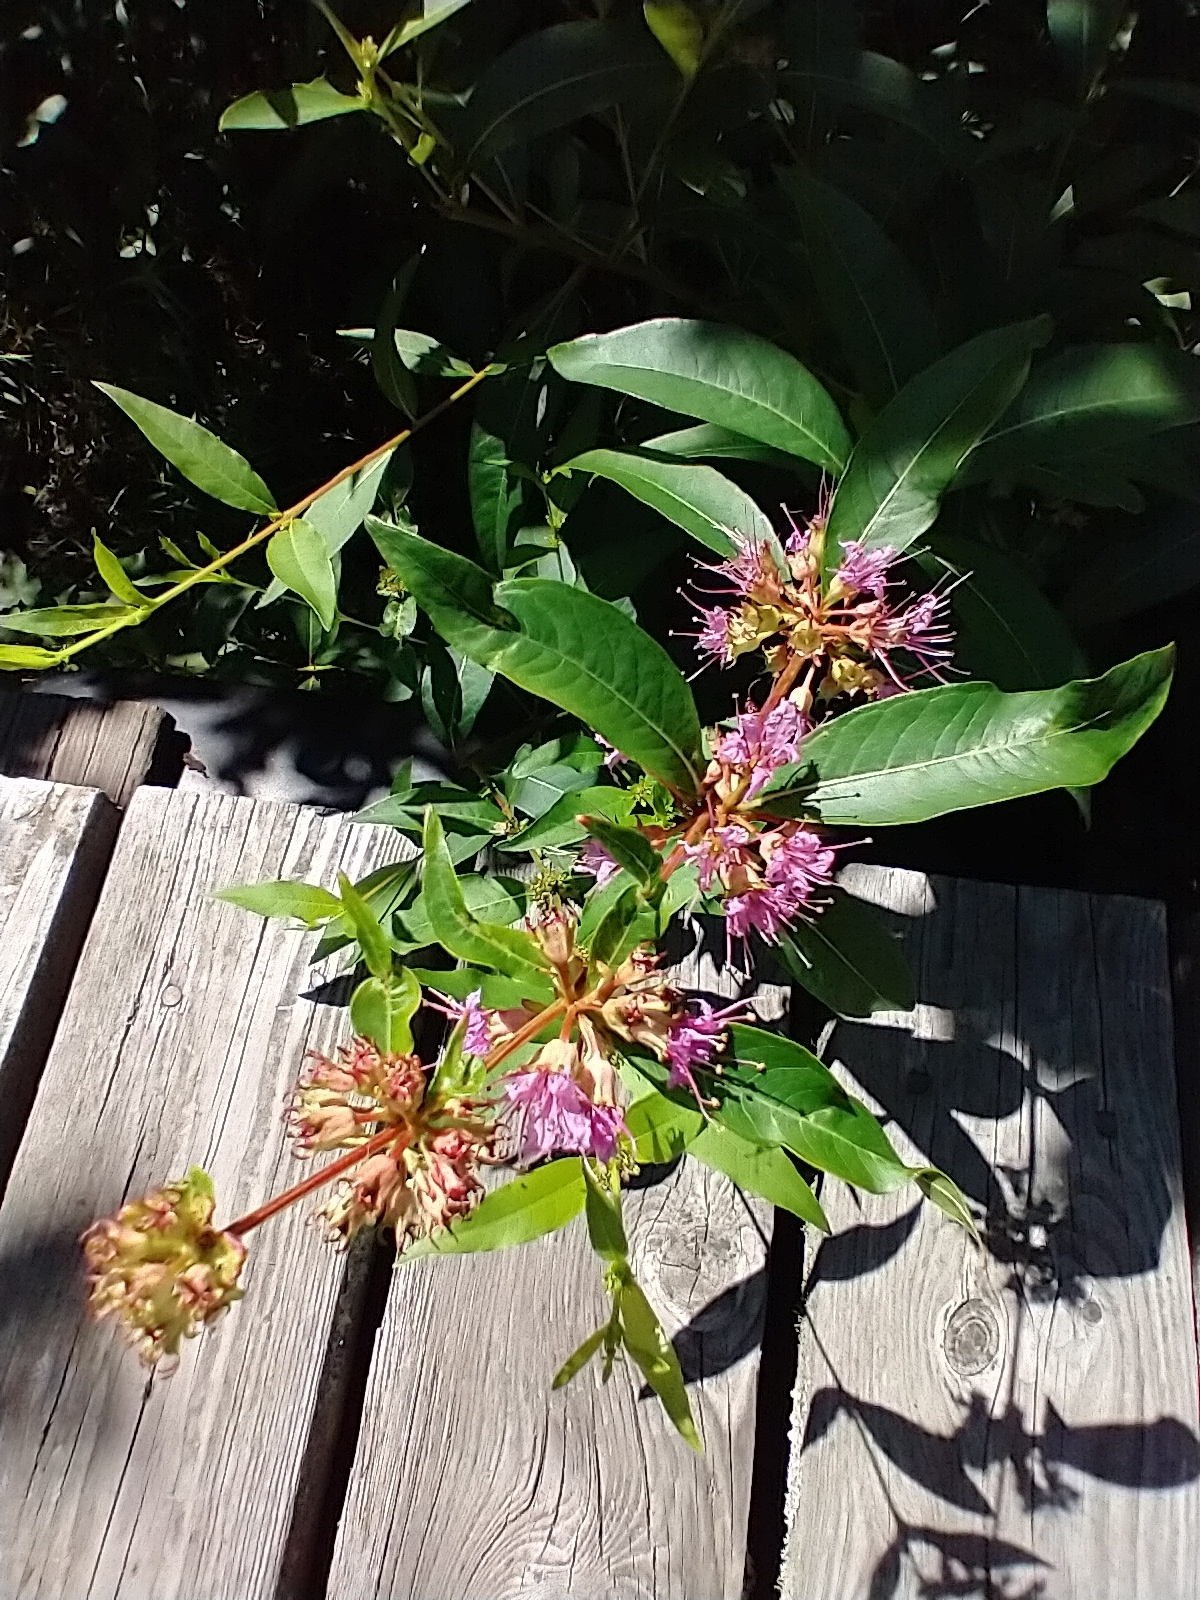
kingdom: Plantae
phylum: Tracheophyta
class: Magnoliopsida
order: Myrtales
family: Lythraceae
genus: Decodon
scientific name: Decodon verticillatus
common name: Hairy swamp loosestrife
